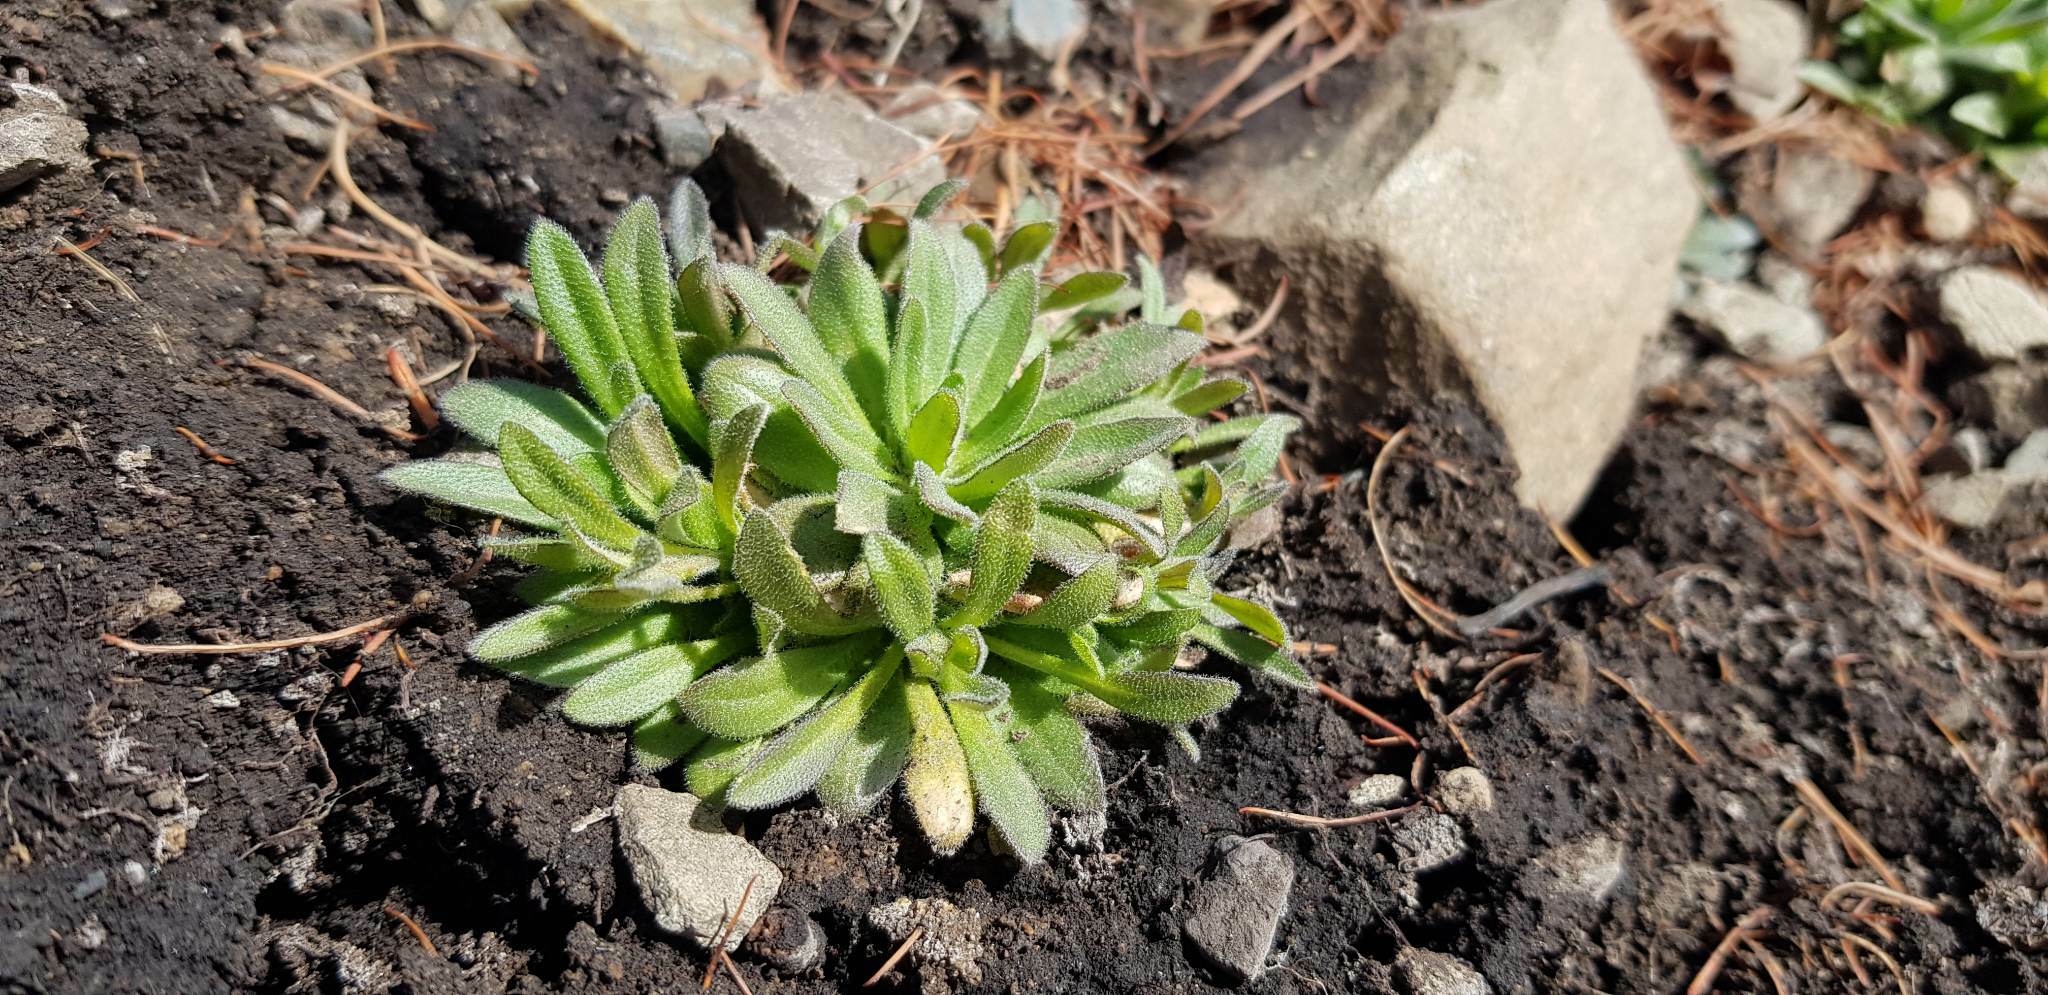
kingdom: Plantae
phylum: Tracheophyta
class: Magnoliopsida
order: Brassicales
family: Brassicaceae
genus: Alyssum
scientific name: Alyssum lenense
